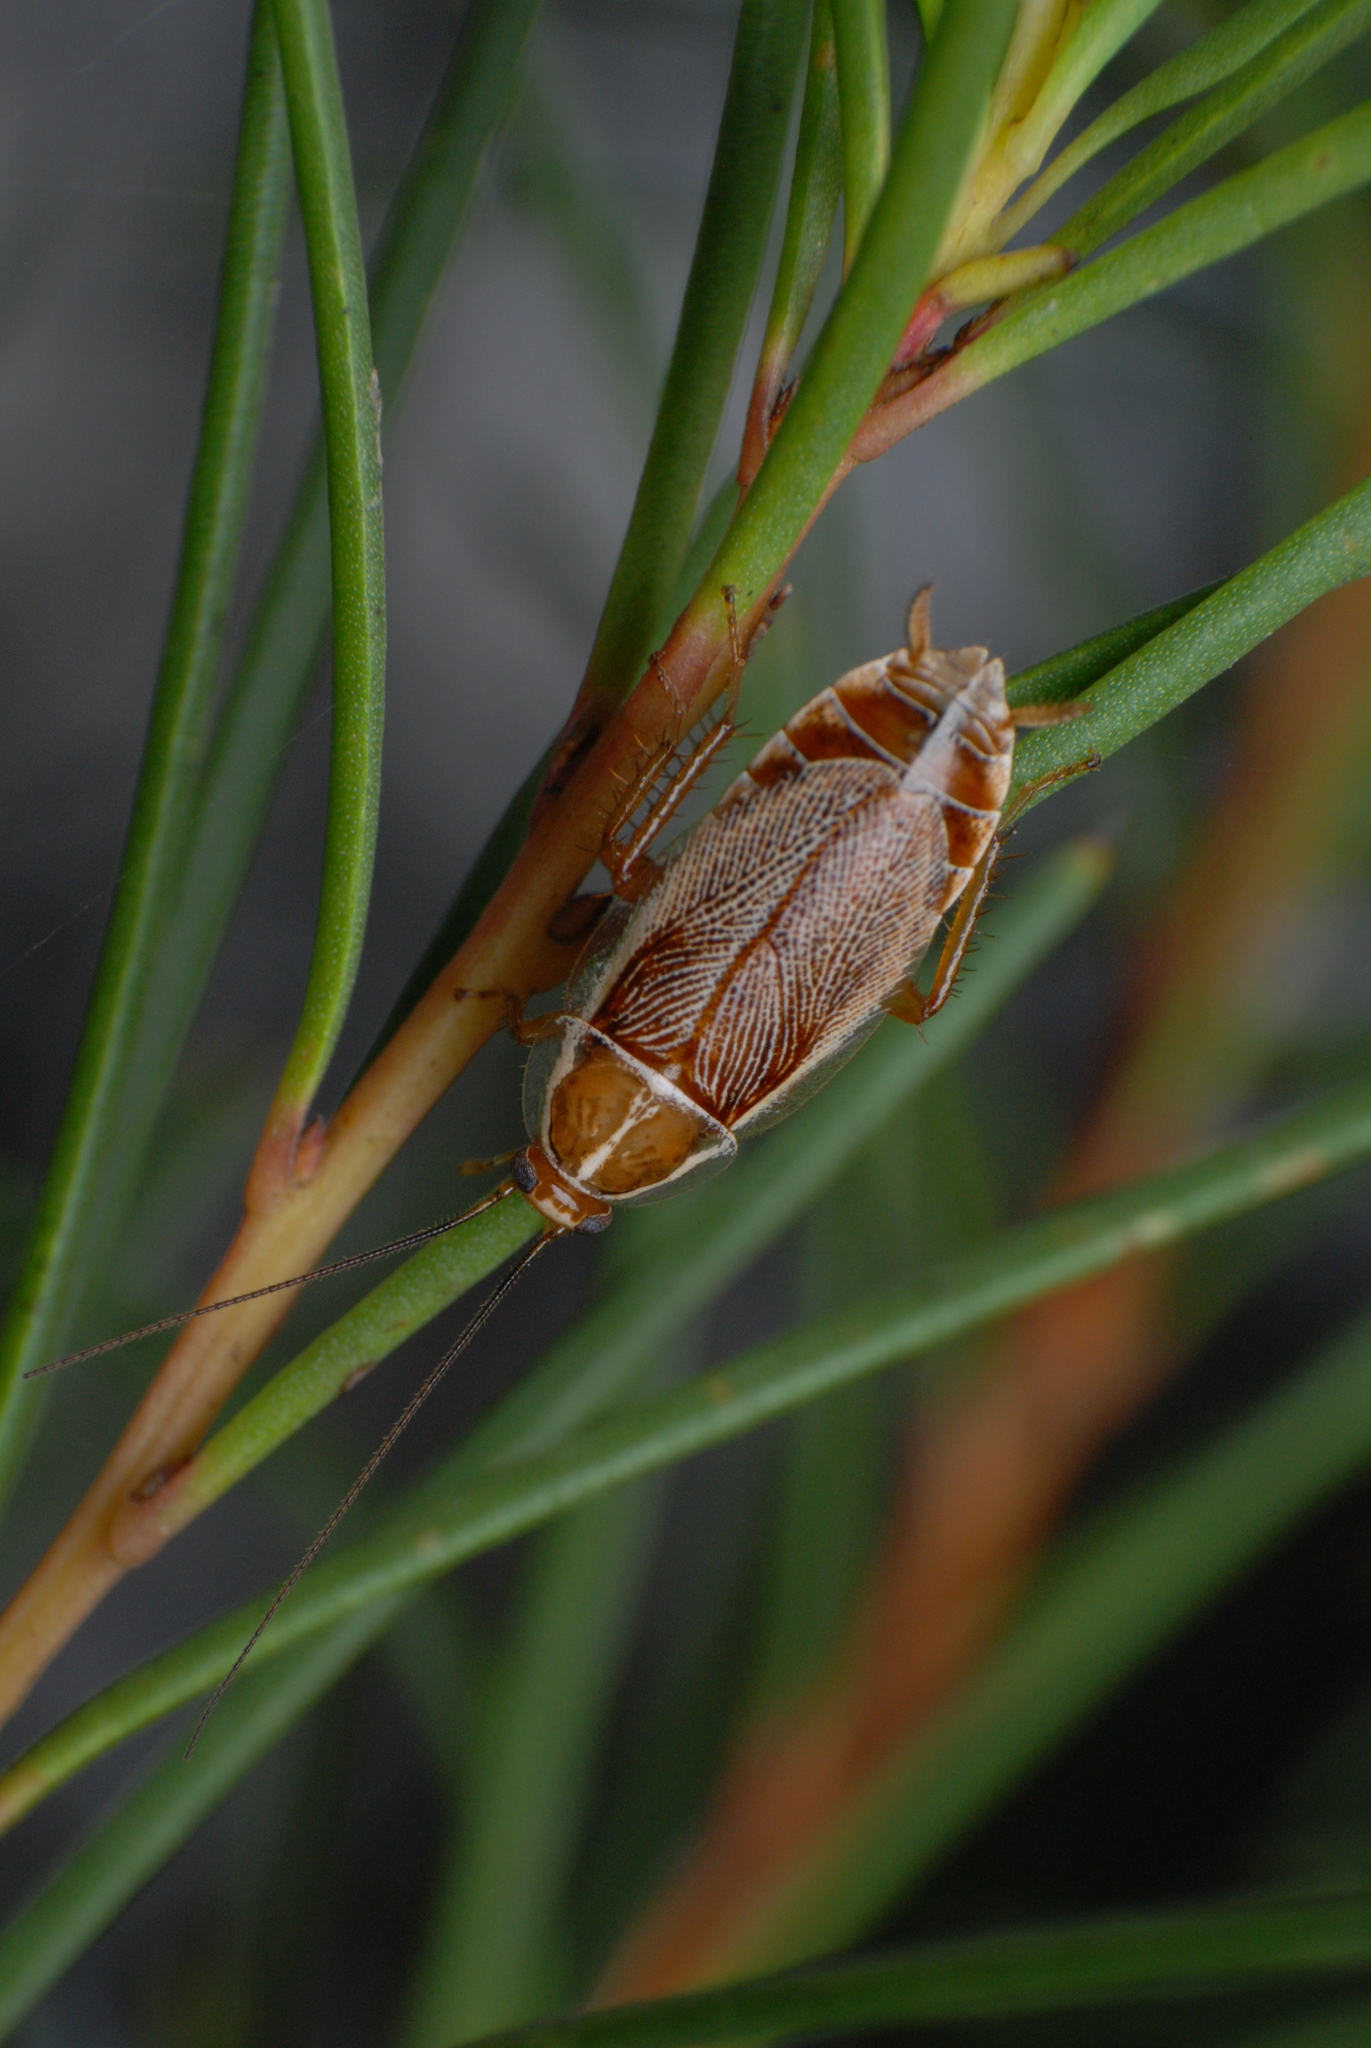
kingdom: Animalia
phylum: Arthropoda
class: Insecta
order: Blattodea
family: Ectobiidae
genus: Balta
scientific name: Balta spuria
